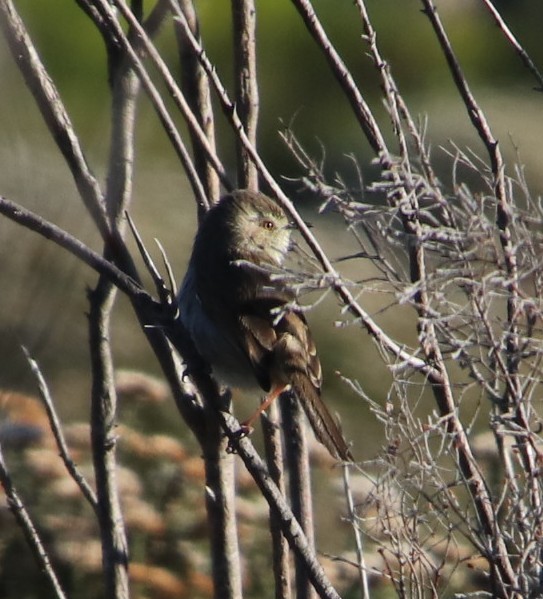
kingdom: Animalia
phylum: Chordata
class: Aves
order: Passeriformes
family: Cisticolidae
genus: Cisticola
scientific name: Cisticola fulvicapilla
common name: Neddicky
